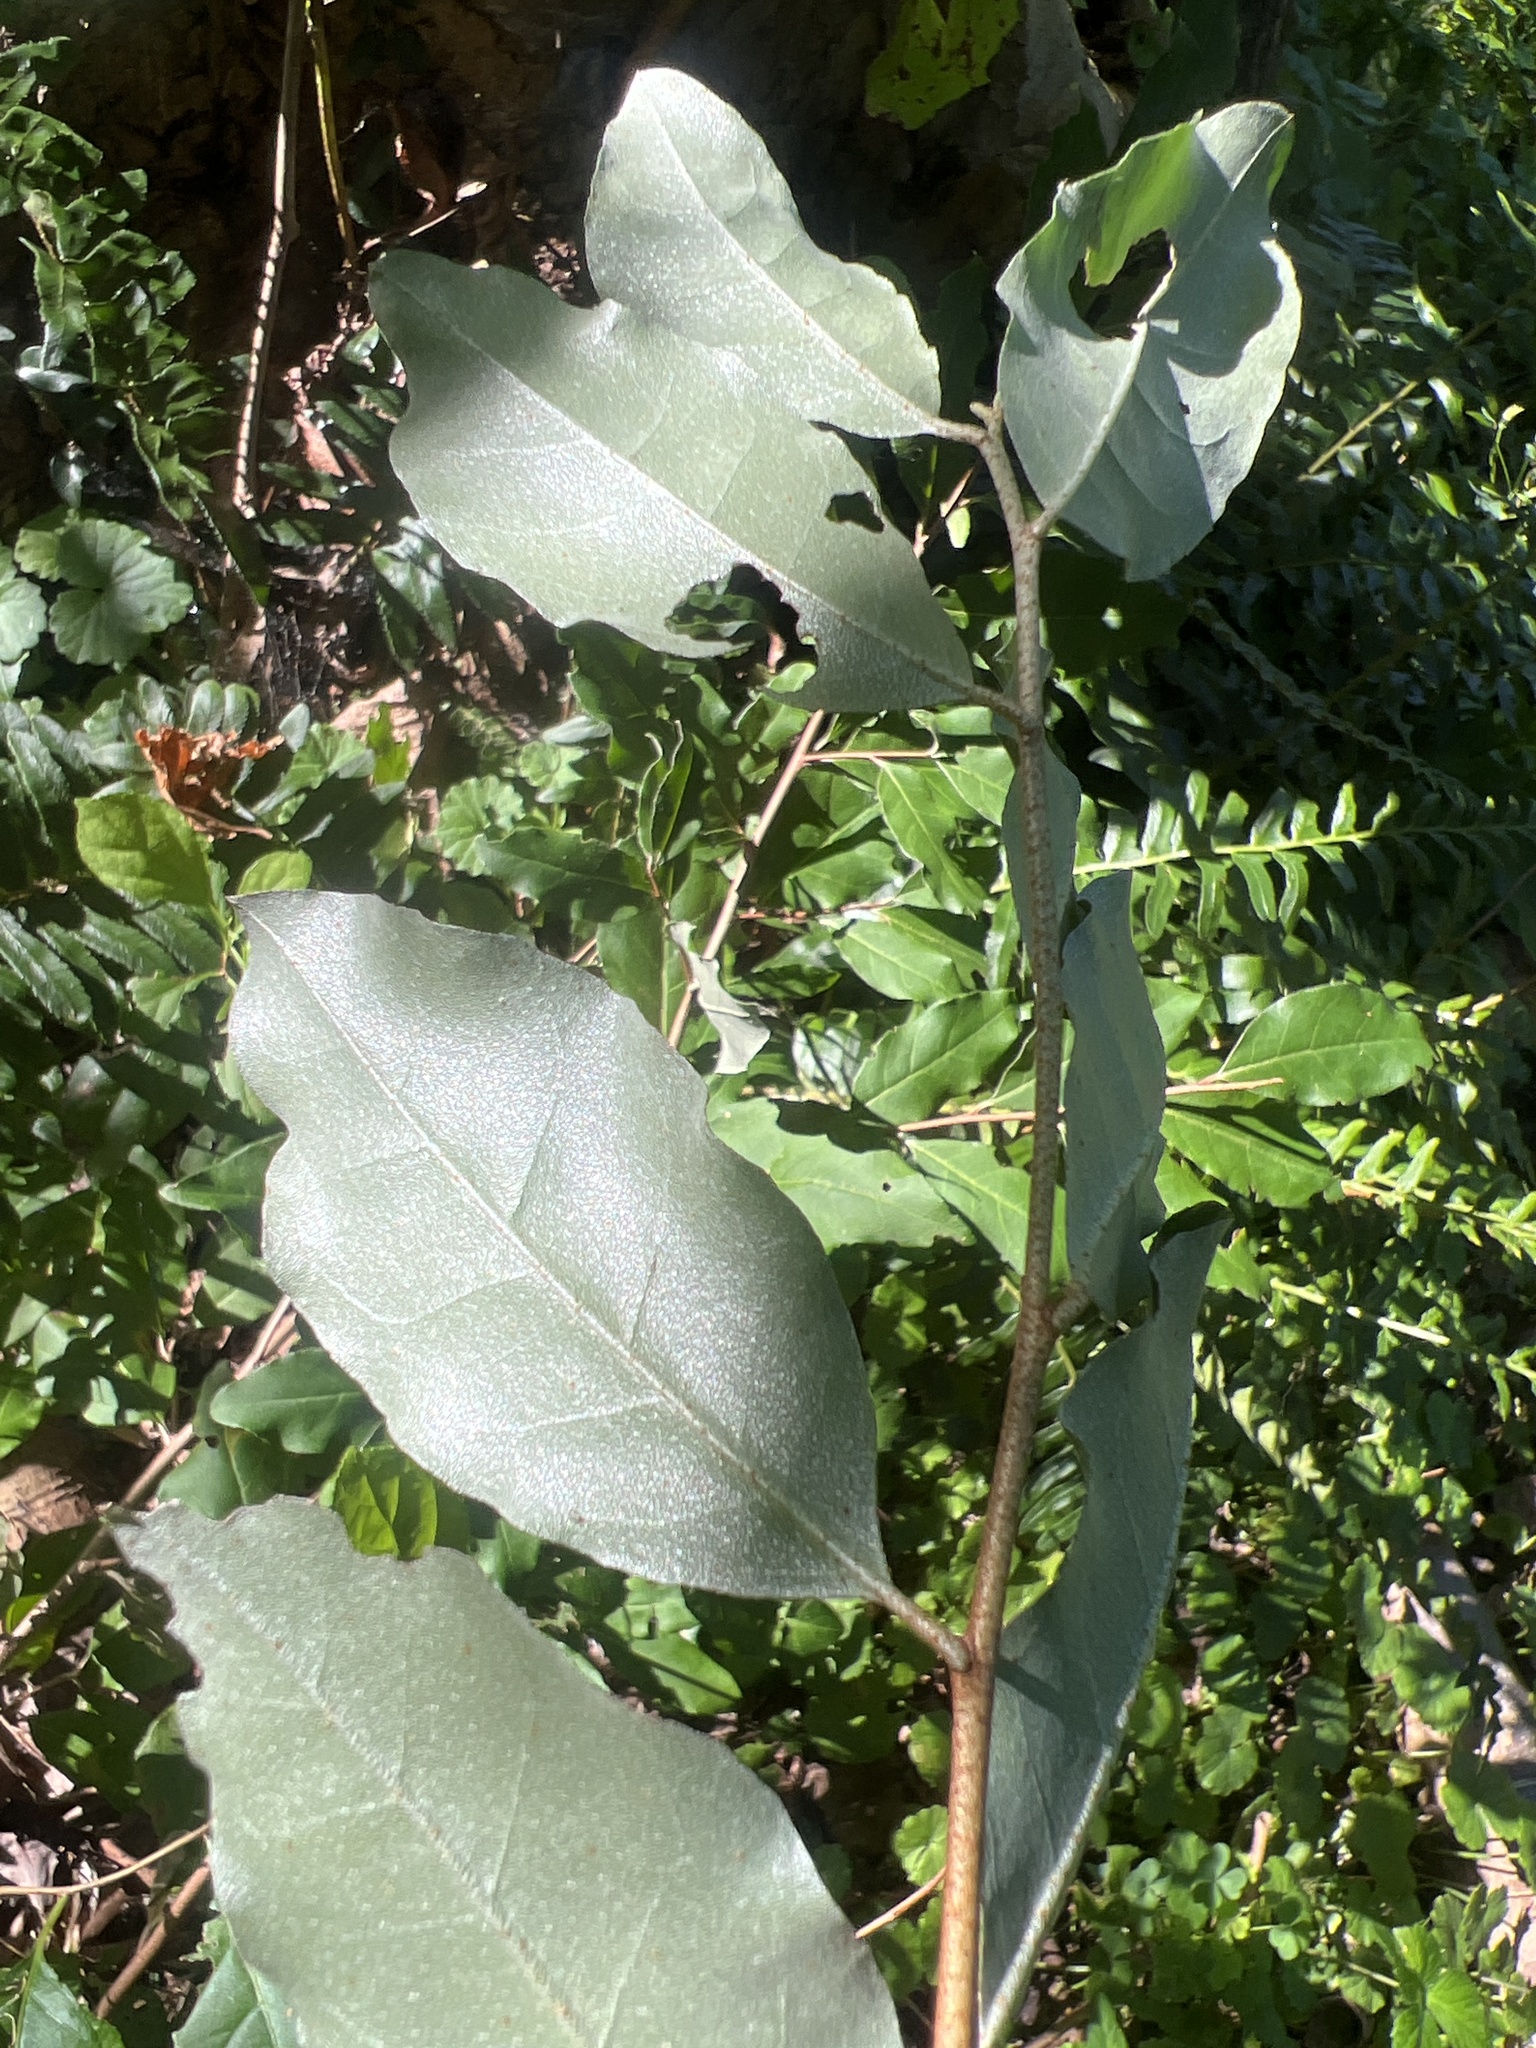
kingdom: Plantae
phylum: Tracheophyta
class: Magnoliopsida
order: Rosales
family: Elaeagnaceae
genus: Elaeagnus
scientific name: Elaeagnus umbellata
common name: Autumn olive
